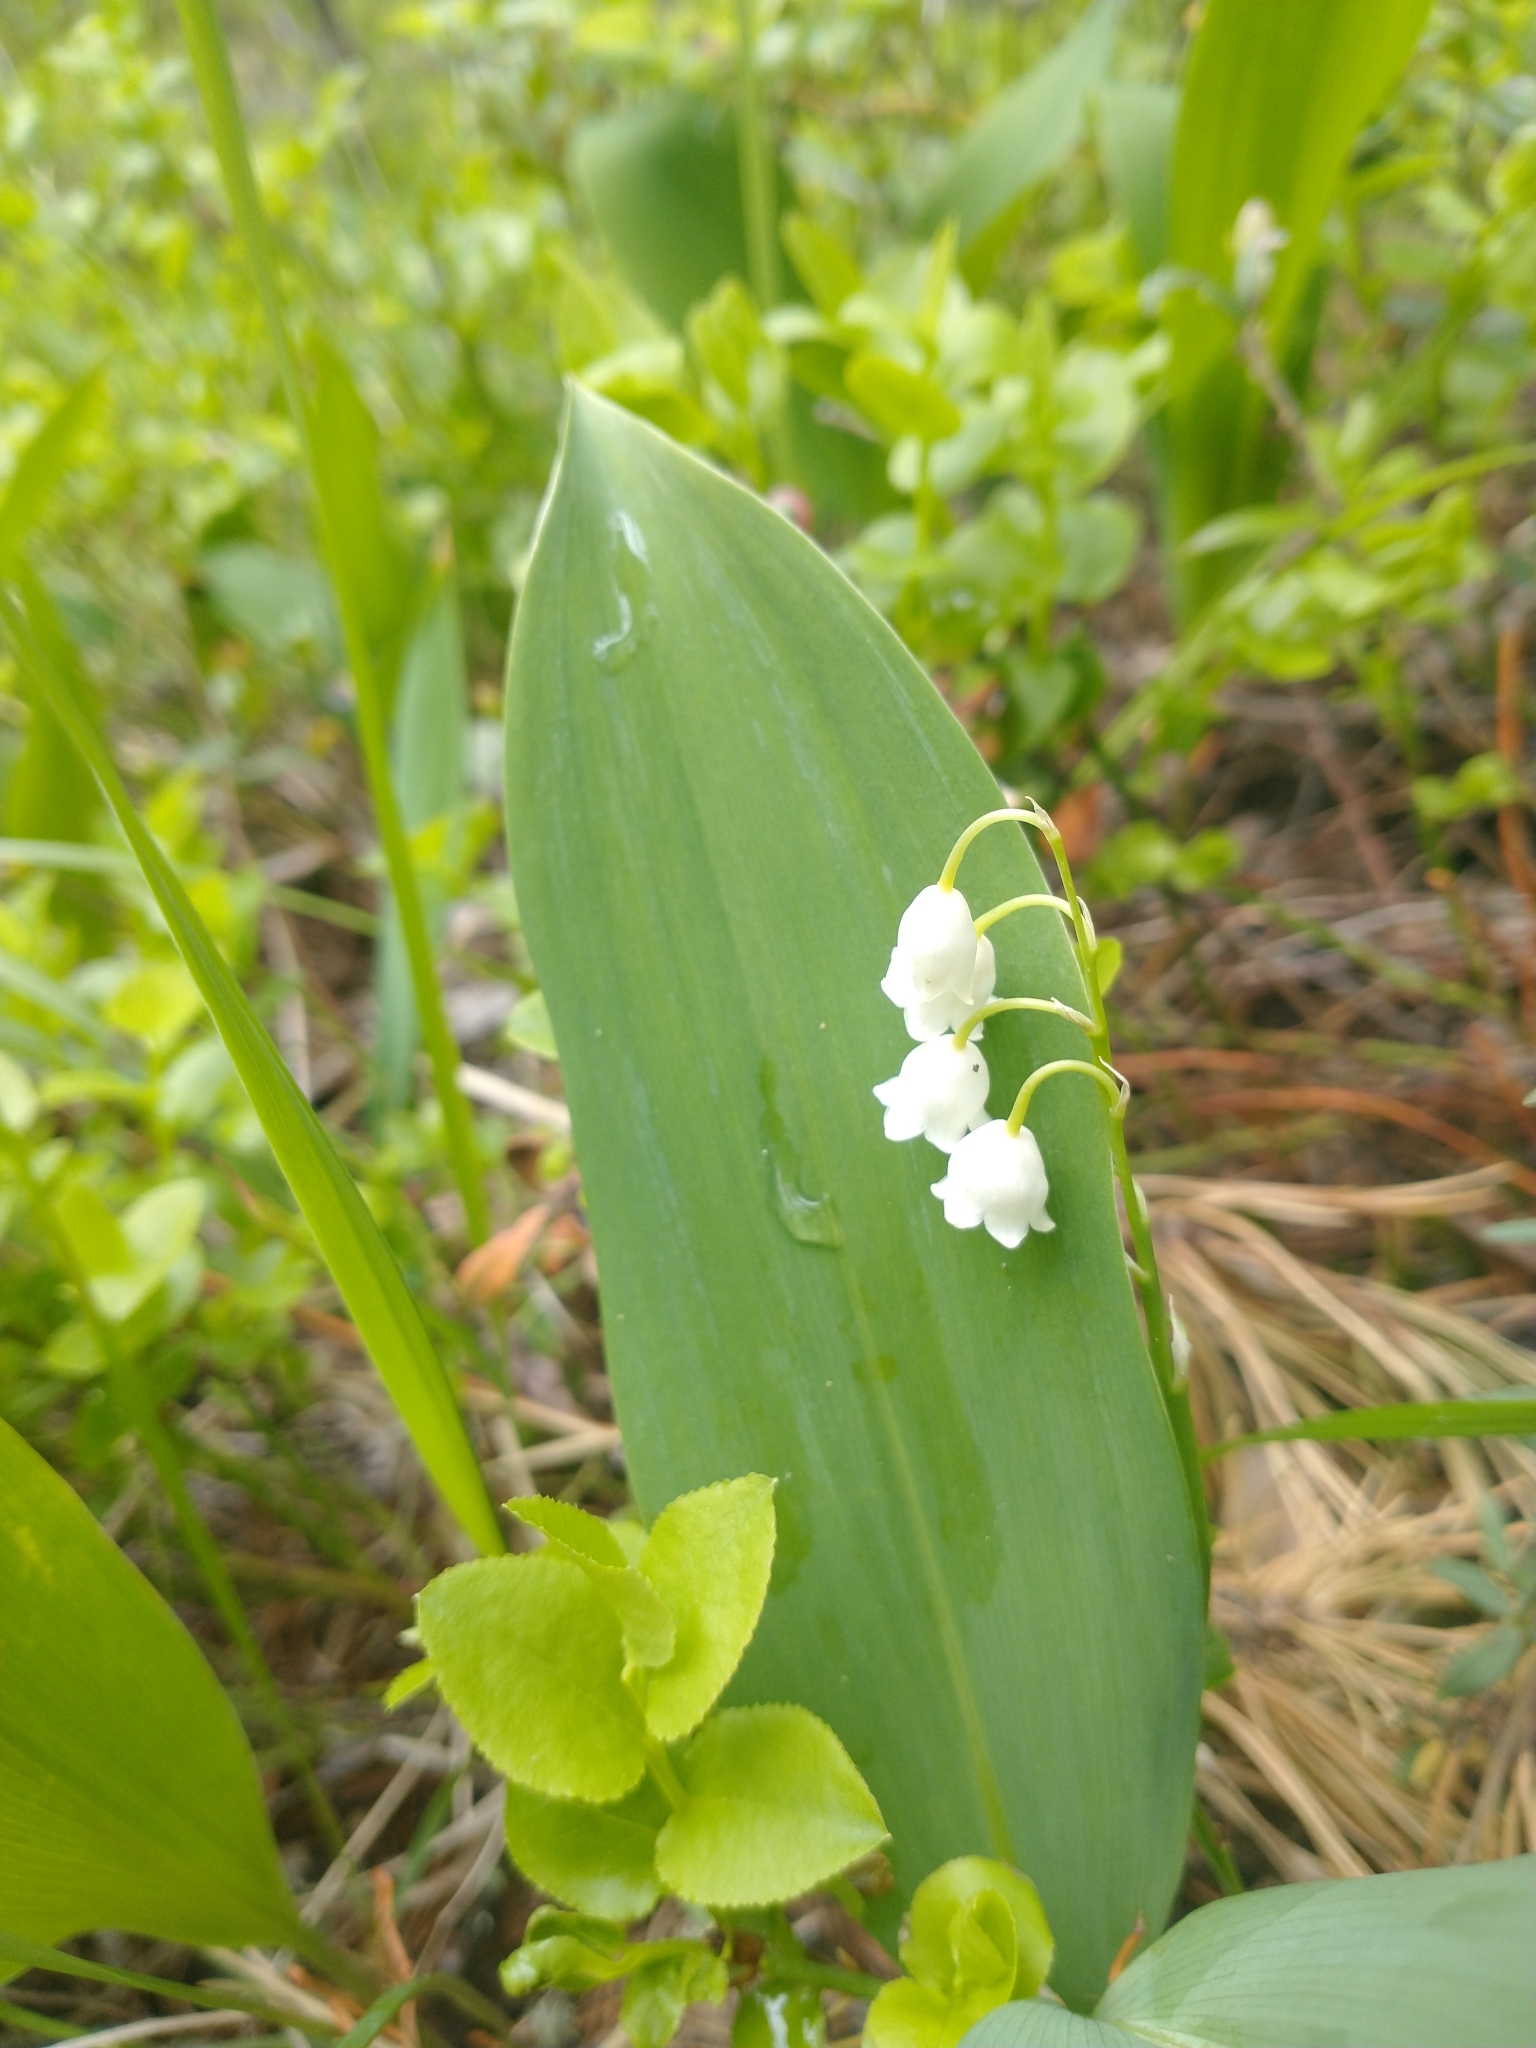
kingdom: Plantae
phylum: Tracheophyta
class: Liliopsida
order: Asparagales
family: Asparagaceae
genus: Convallaria
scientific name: Convallaria majalis
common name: Lily-of-the-valley
